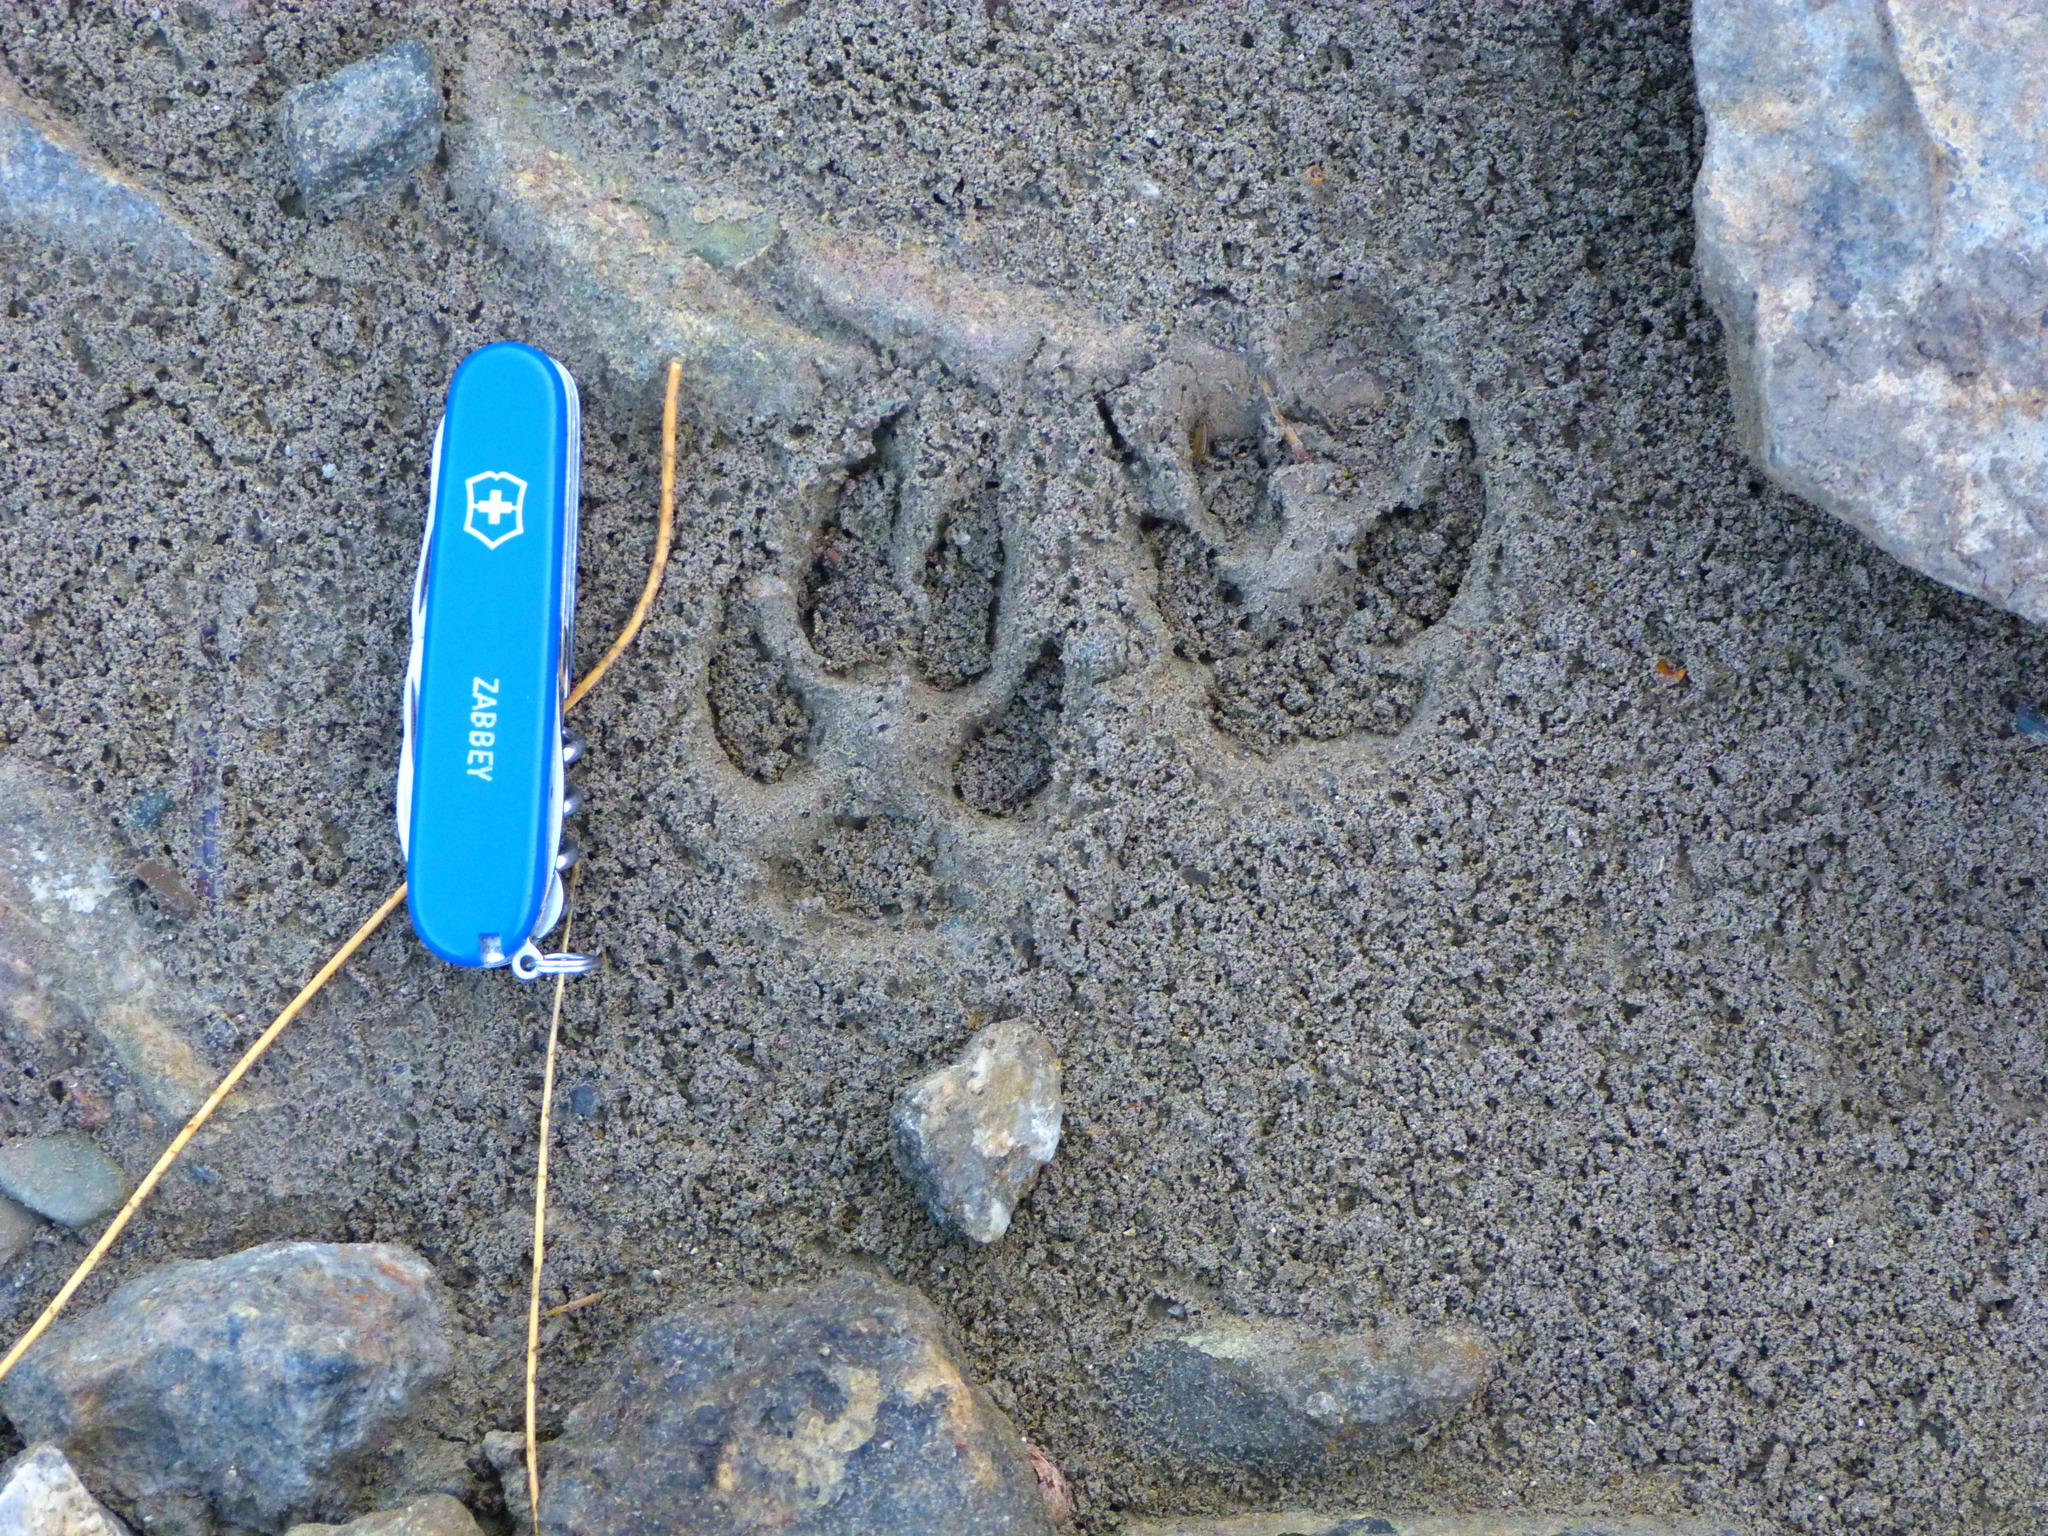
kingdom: Animalia
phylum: Chordata
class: Mammalia
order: Carnivora
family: Canidae
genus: Canis
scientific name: Canis latrans
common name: Coyote
